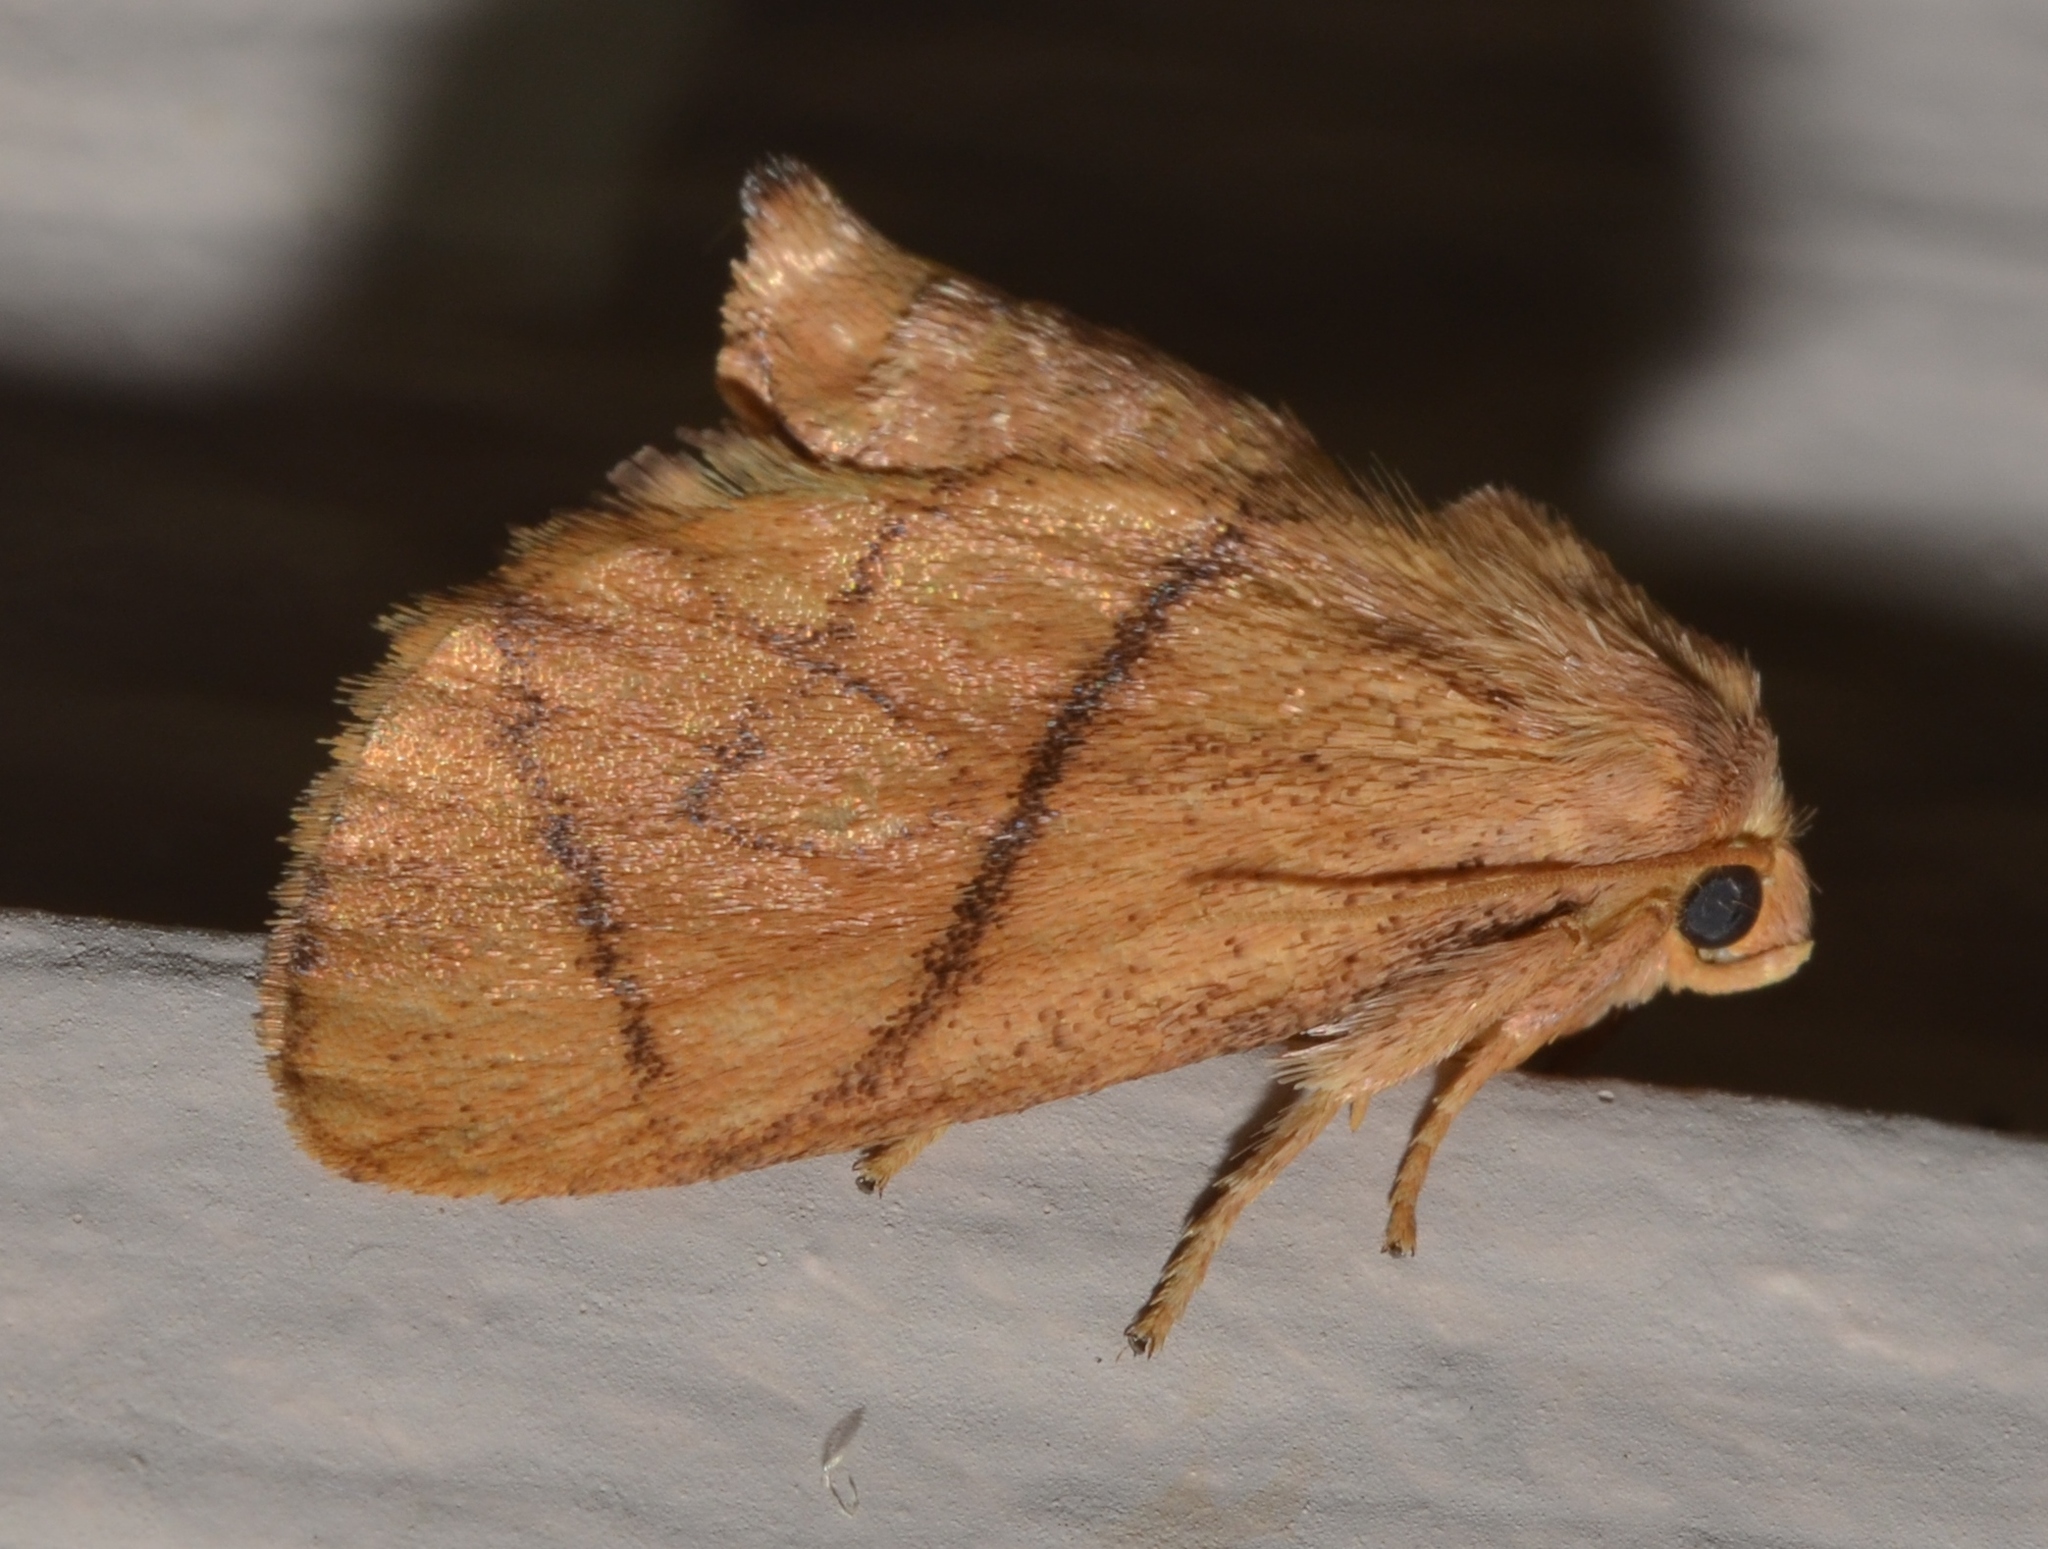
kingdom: Animalia
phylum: Arthropoda
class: Insecta
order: Lepidoptera
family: Limacodidae
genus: Apoda
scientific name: Apoda y-inversa
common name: Yellow-collared slug moth
